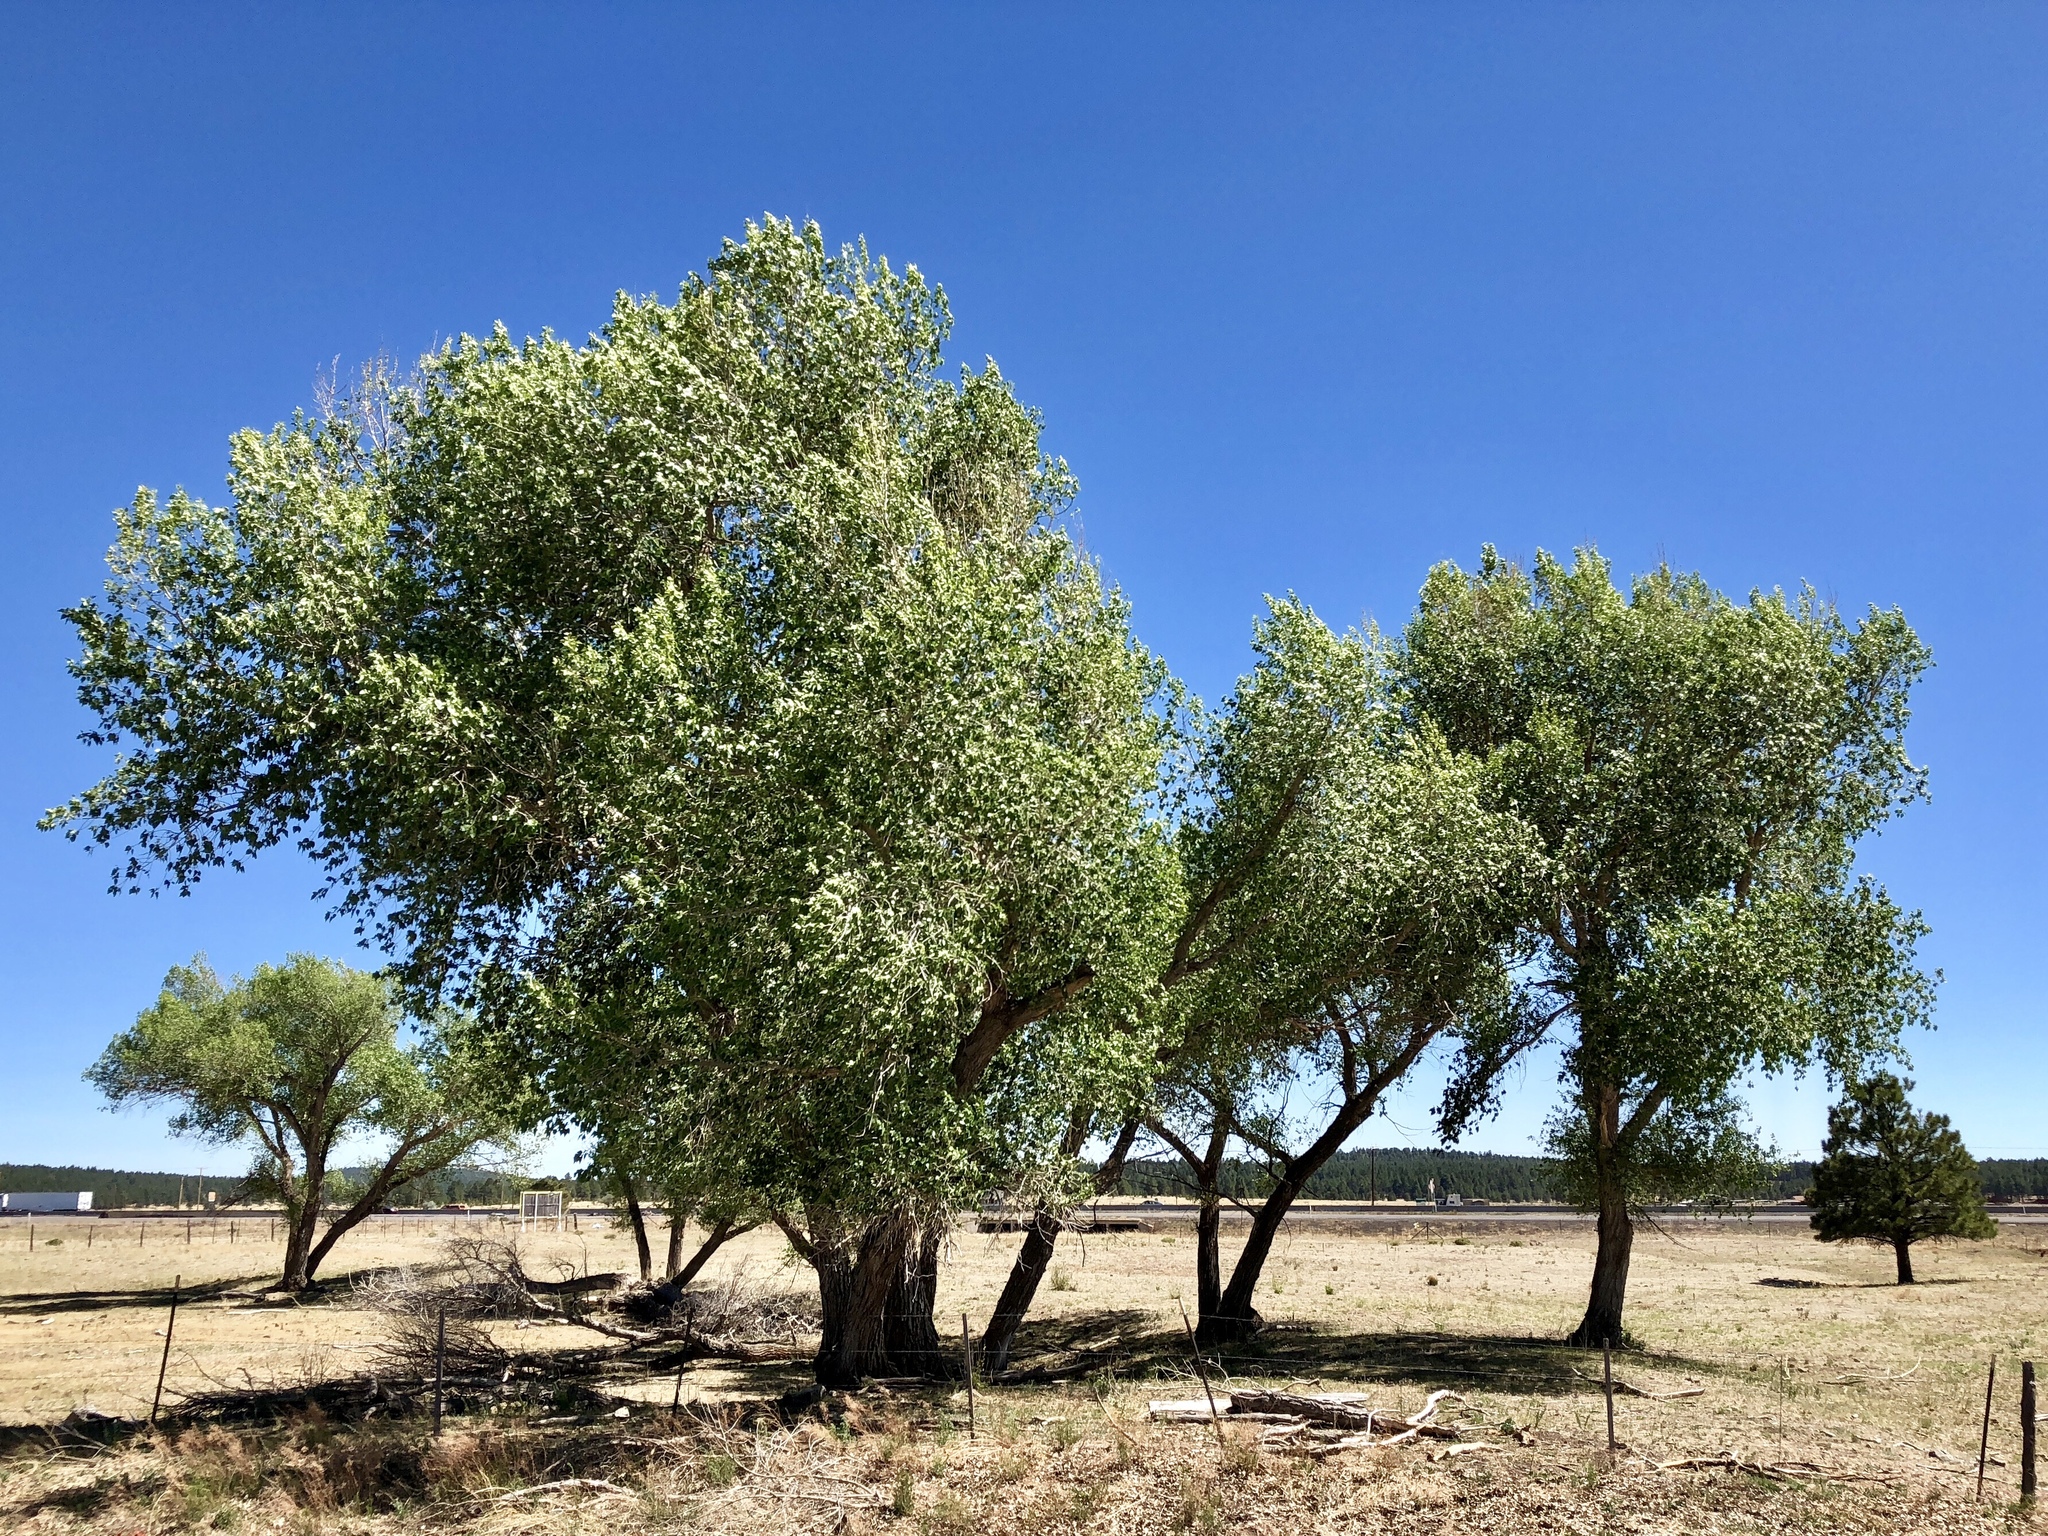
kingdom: Plantae
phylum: Tracheophyta
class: Magnoliopsida
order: Malpighiales
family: Salicaceae
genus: Populus
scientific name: Populus fremontii
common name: Fremont's cottonwood
